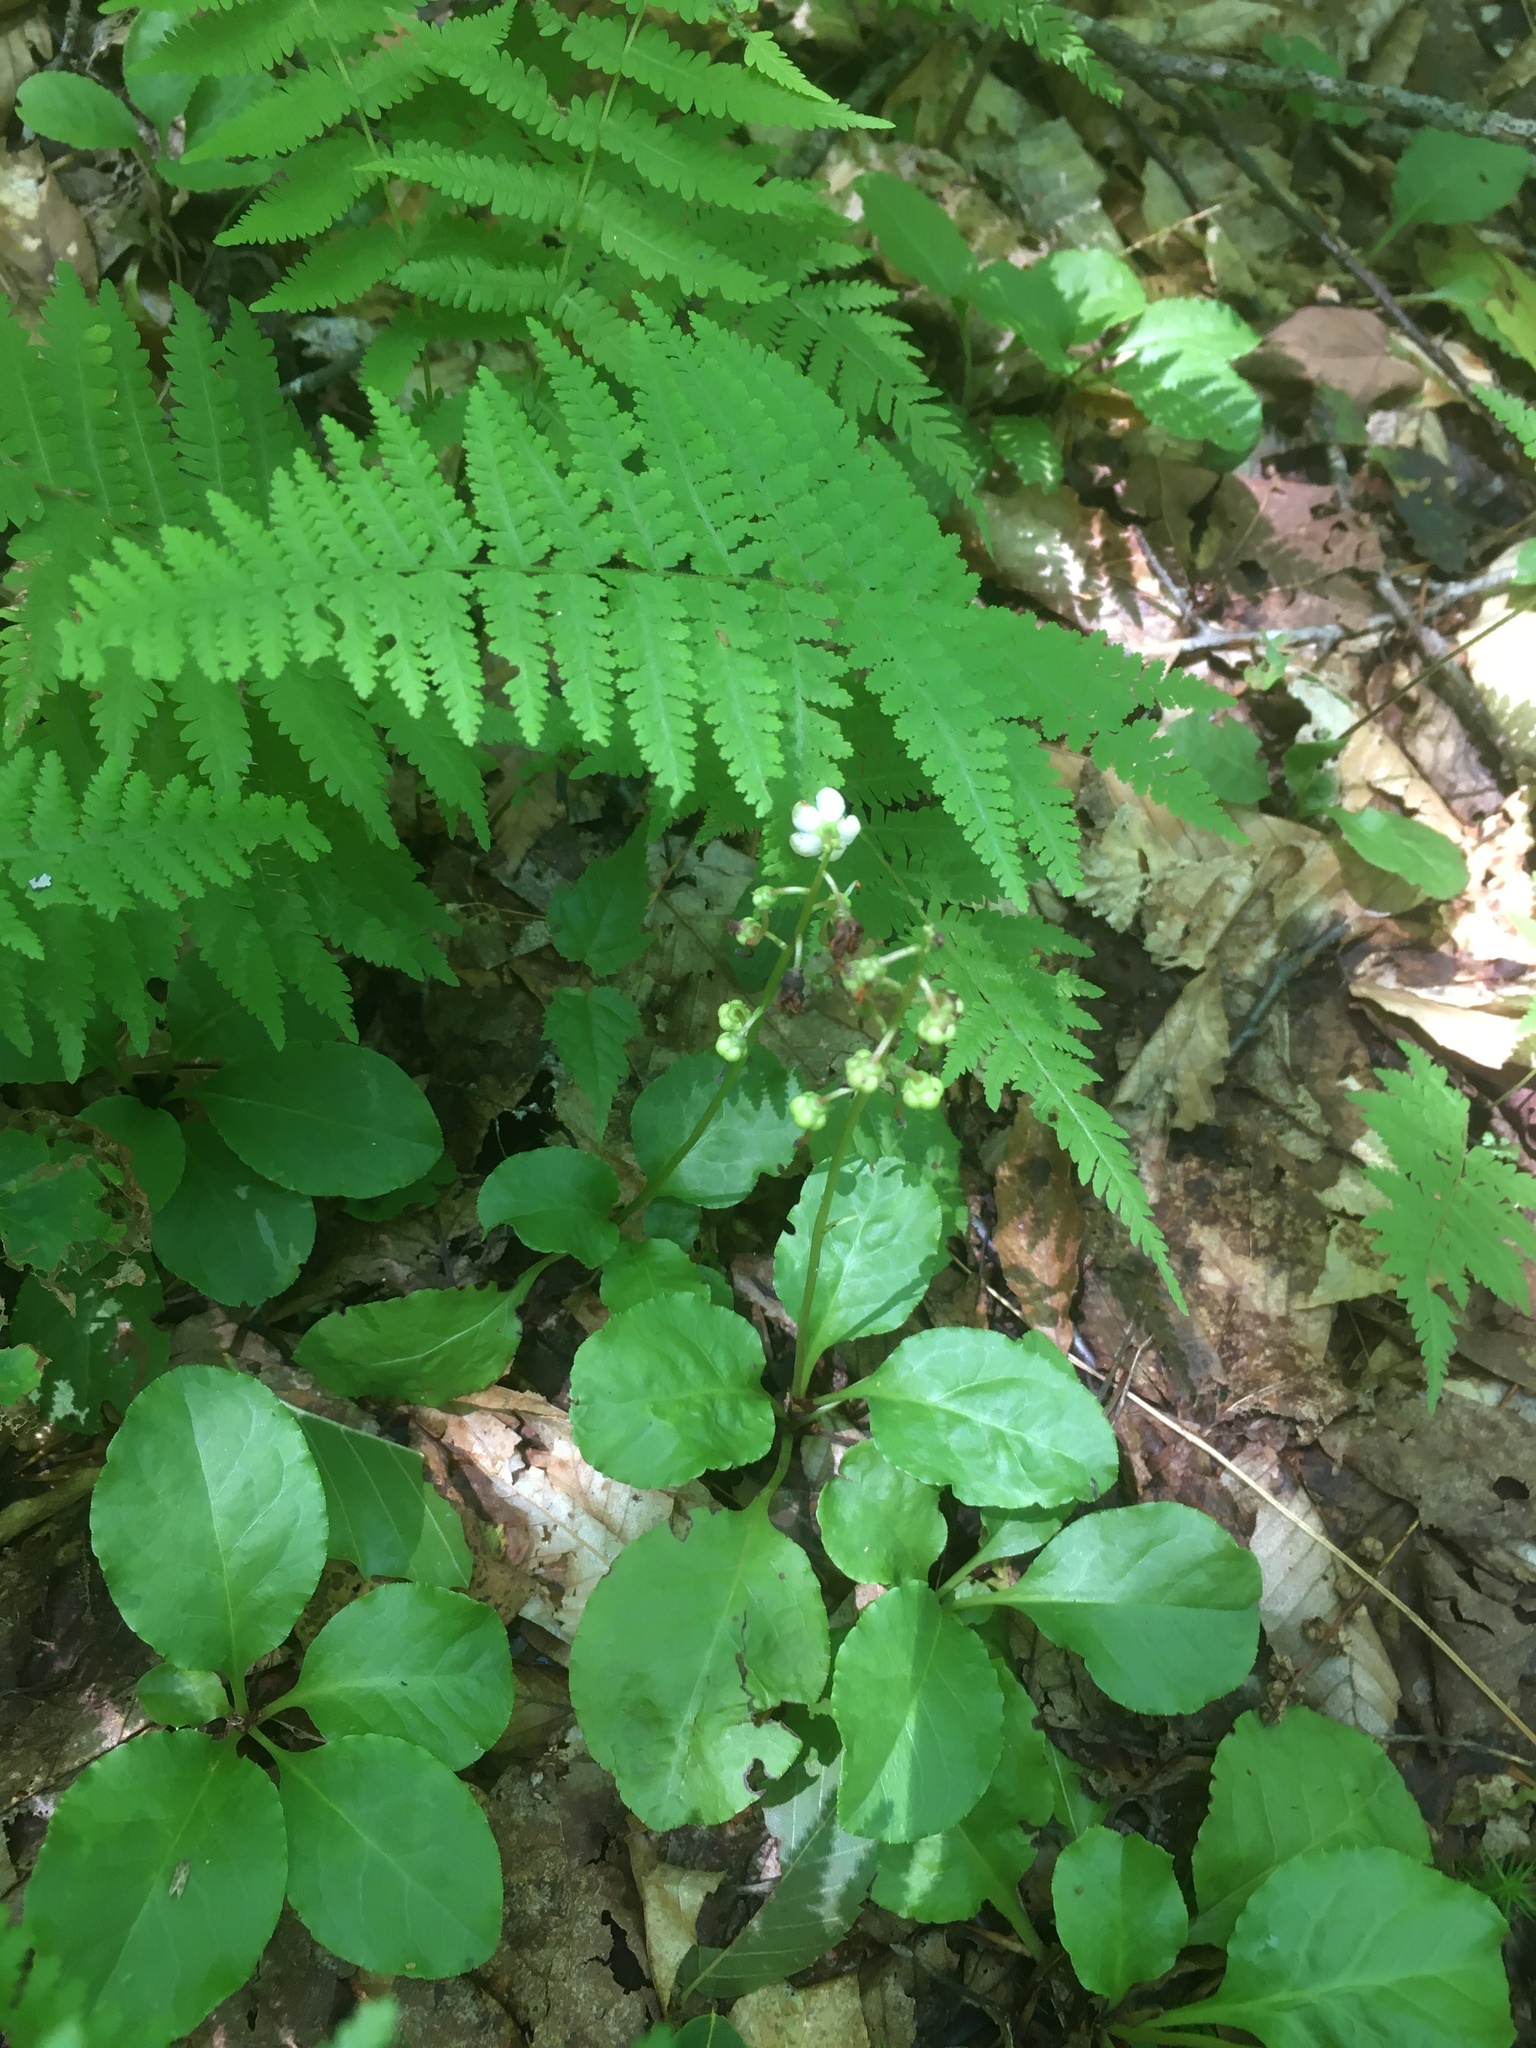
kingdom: Plantae
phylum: Tracheophyta
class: Magnoliopsida
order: Ericales
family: Ericaceae
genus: Pyrola
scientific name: Pyrola elliptica
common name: Shinleaf
